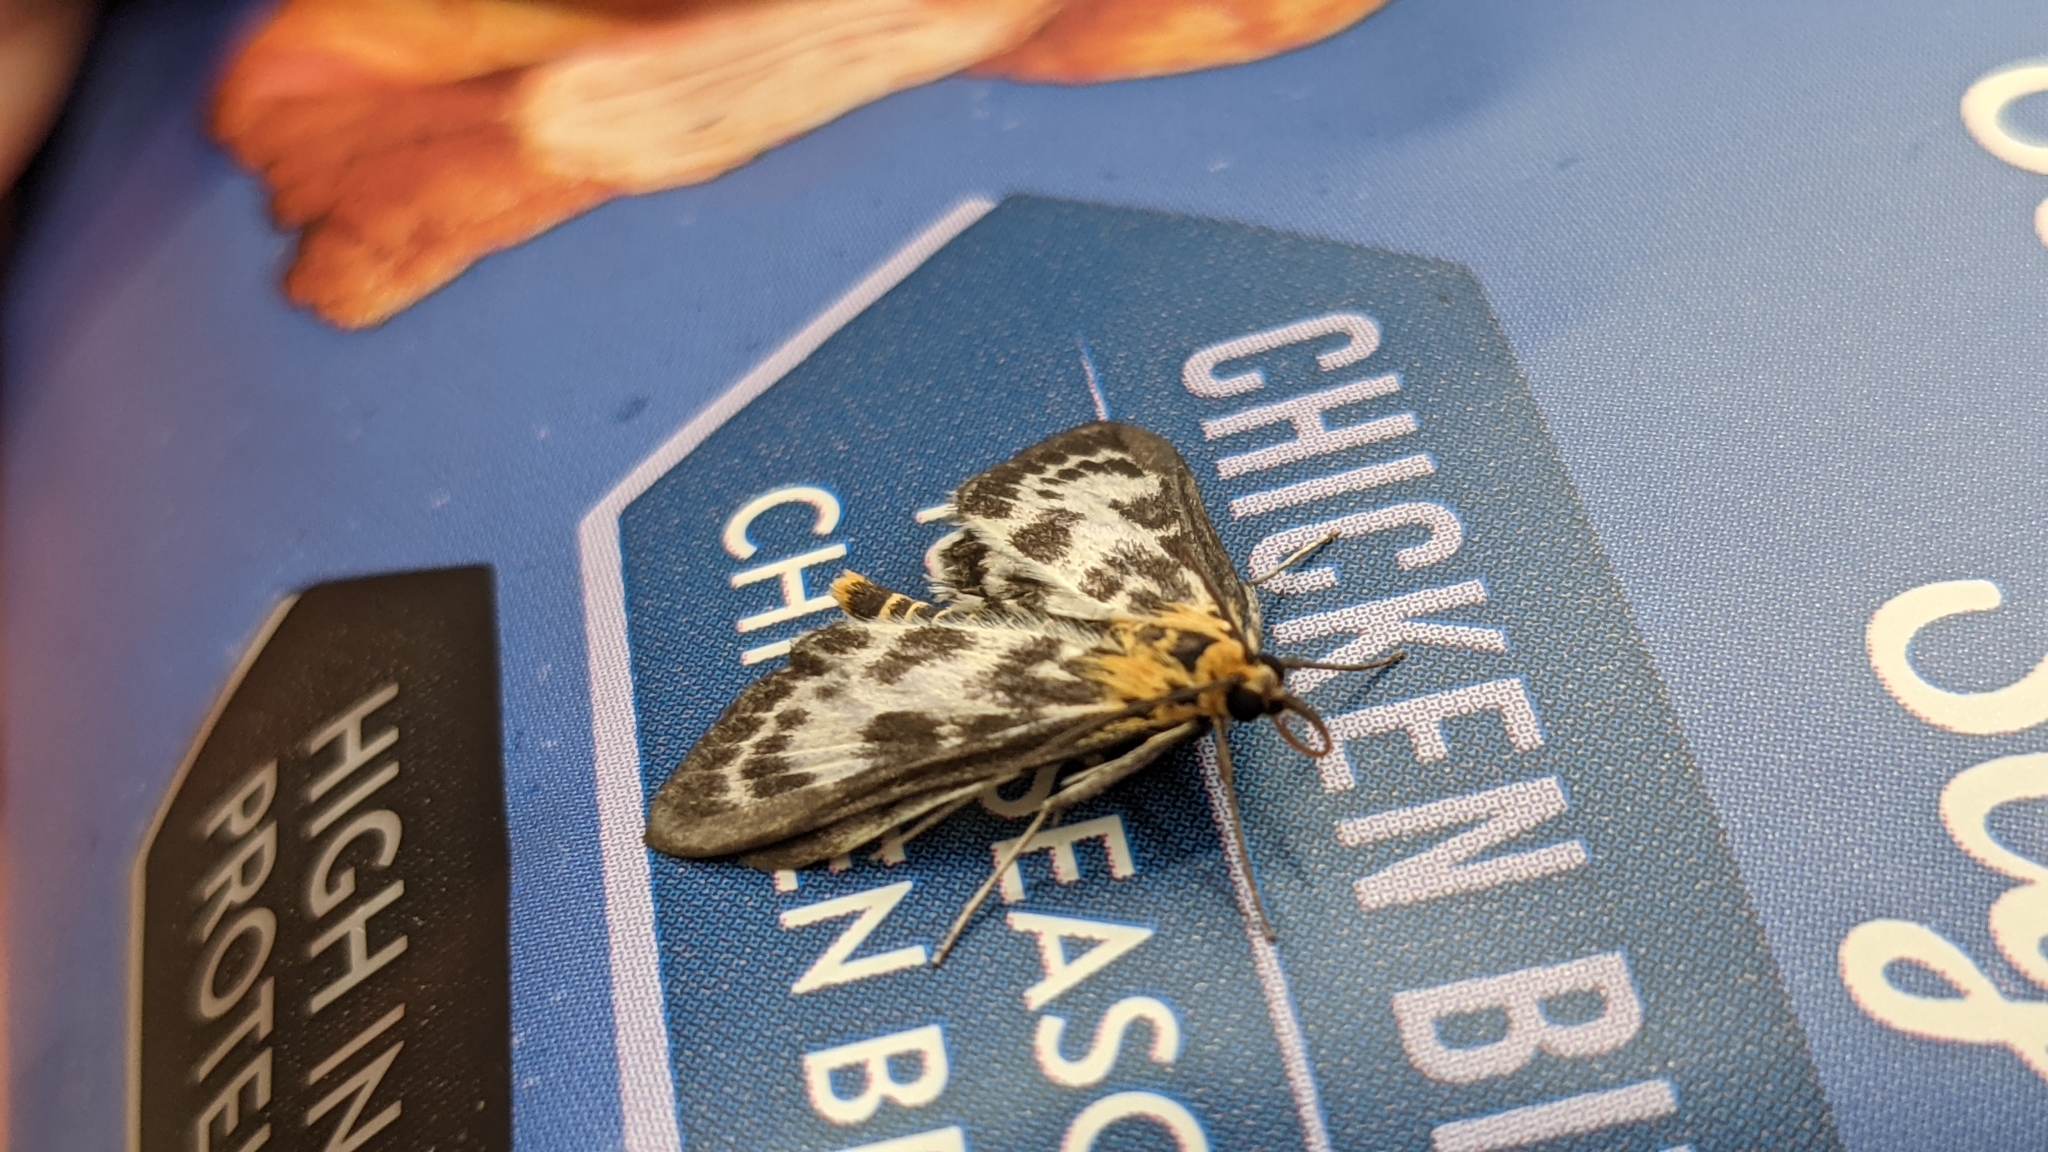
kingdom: Animalia
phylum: Arthropoda
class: Insecta
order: Lepidoptera
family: Crambidae
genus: Anania
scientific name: Anania hortulata
